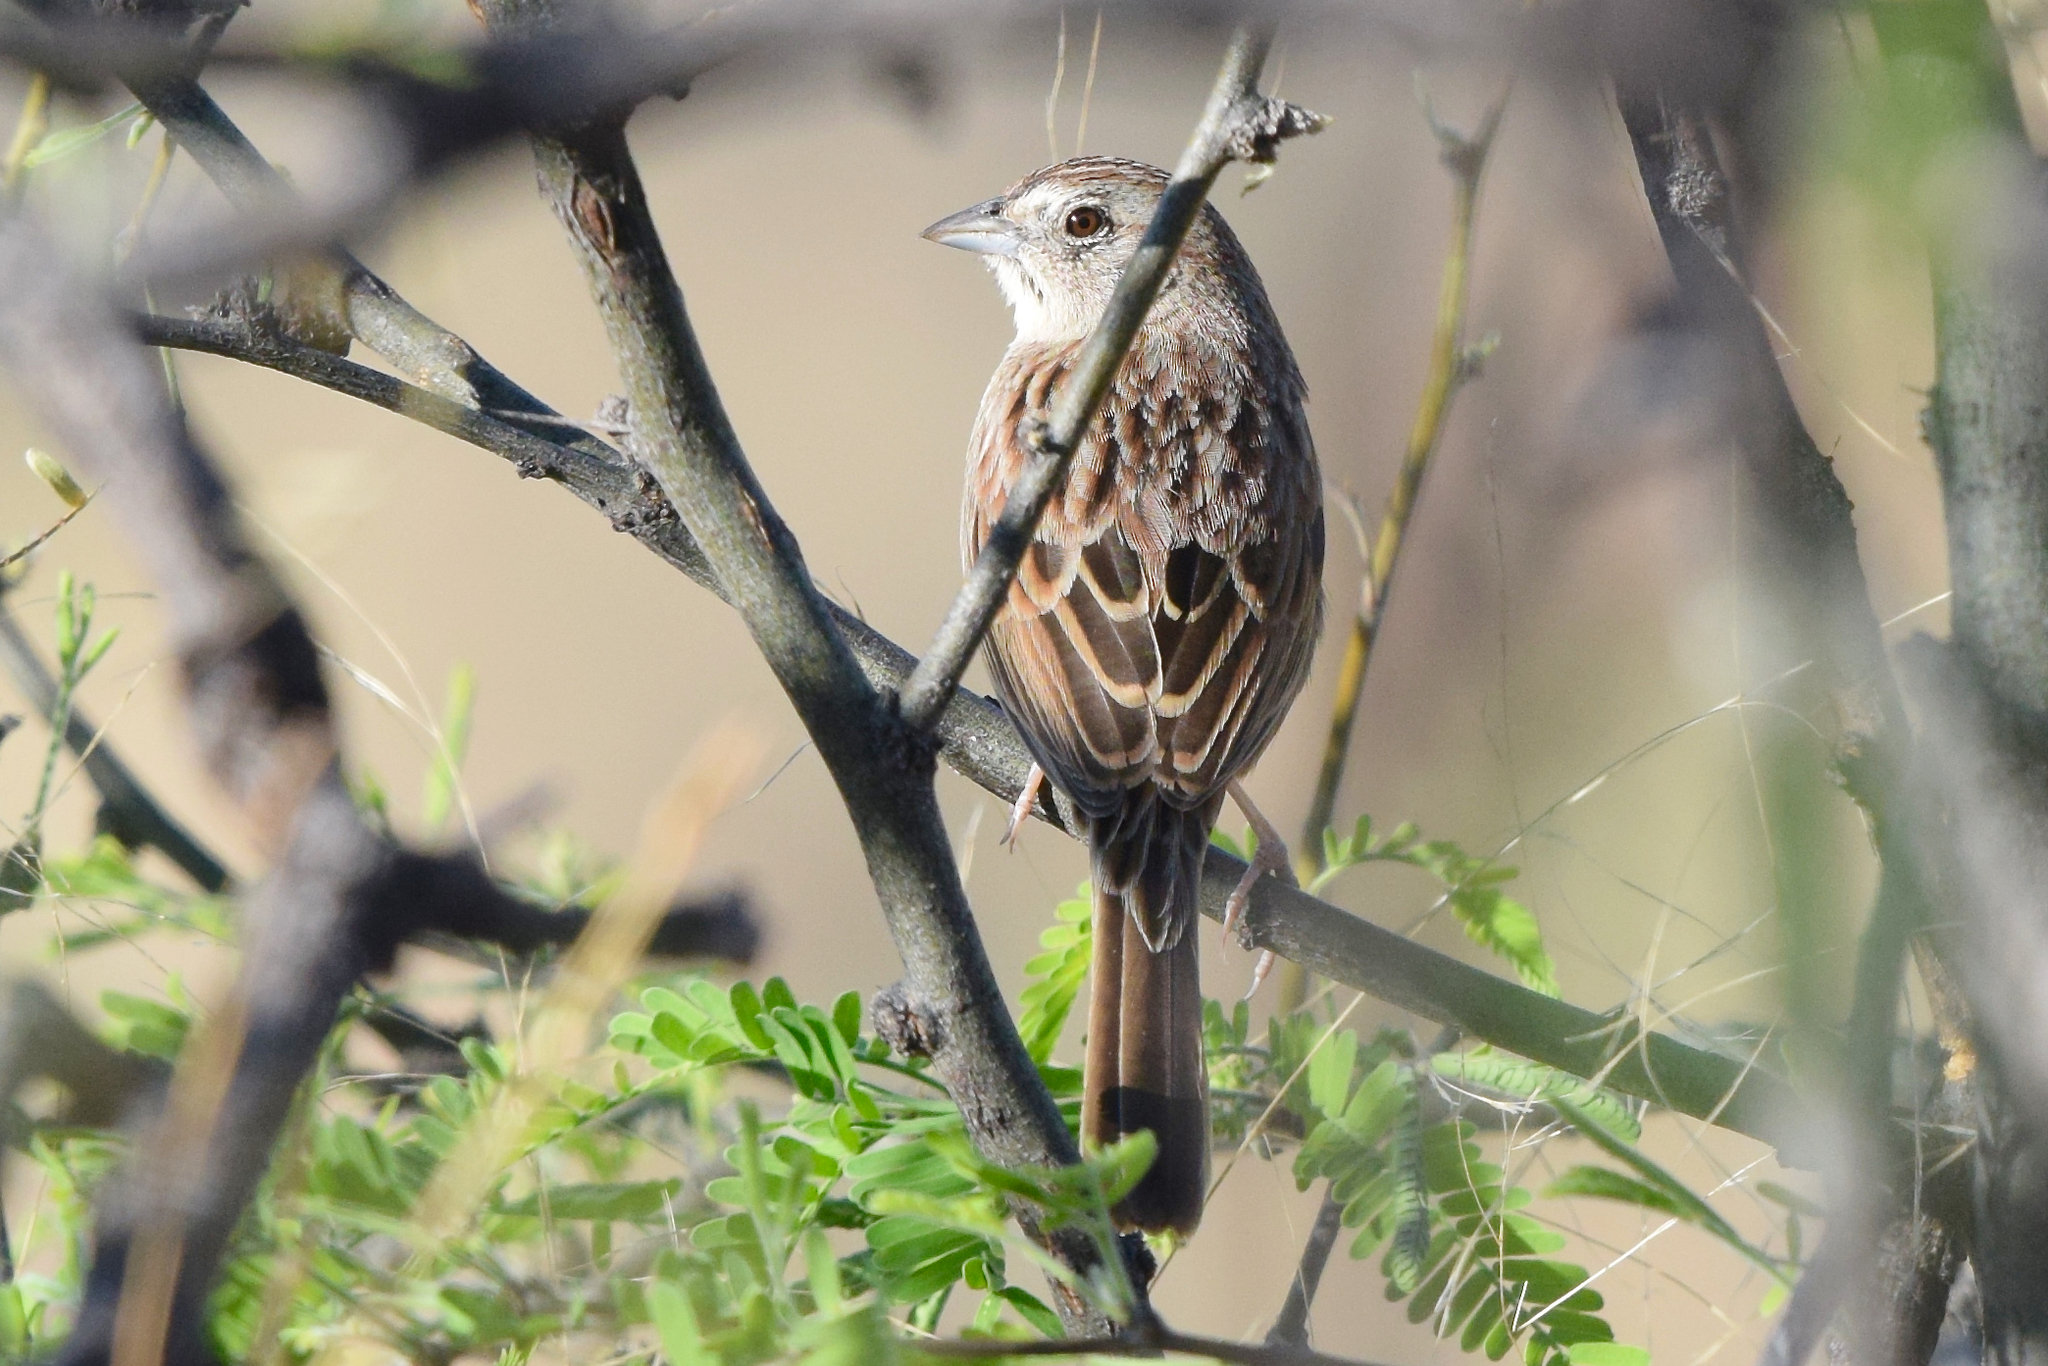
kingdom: Animalia
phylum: Chordata
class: Aves
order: Passeriformes
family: Passerellidae
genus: Peucaea
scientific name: Peucaea botterii
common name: Botteri's sparrow
